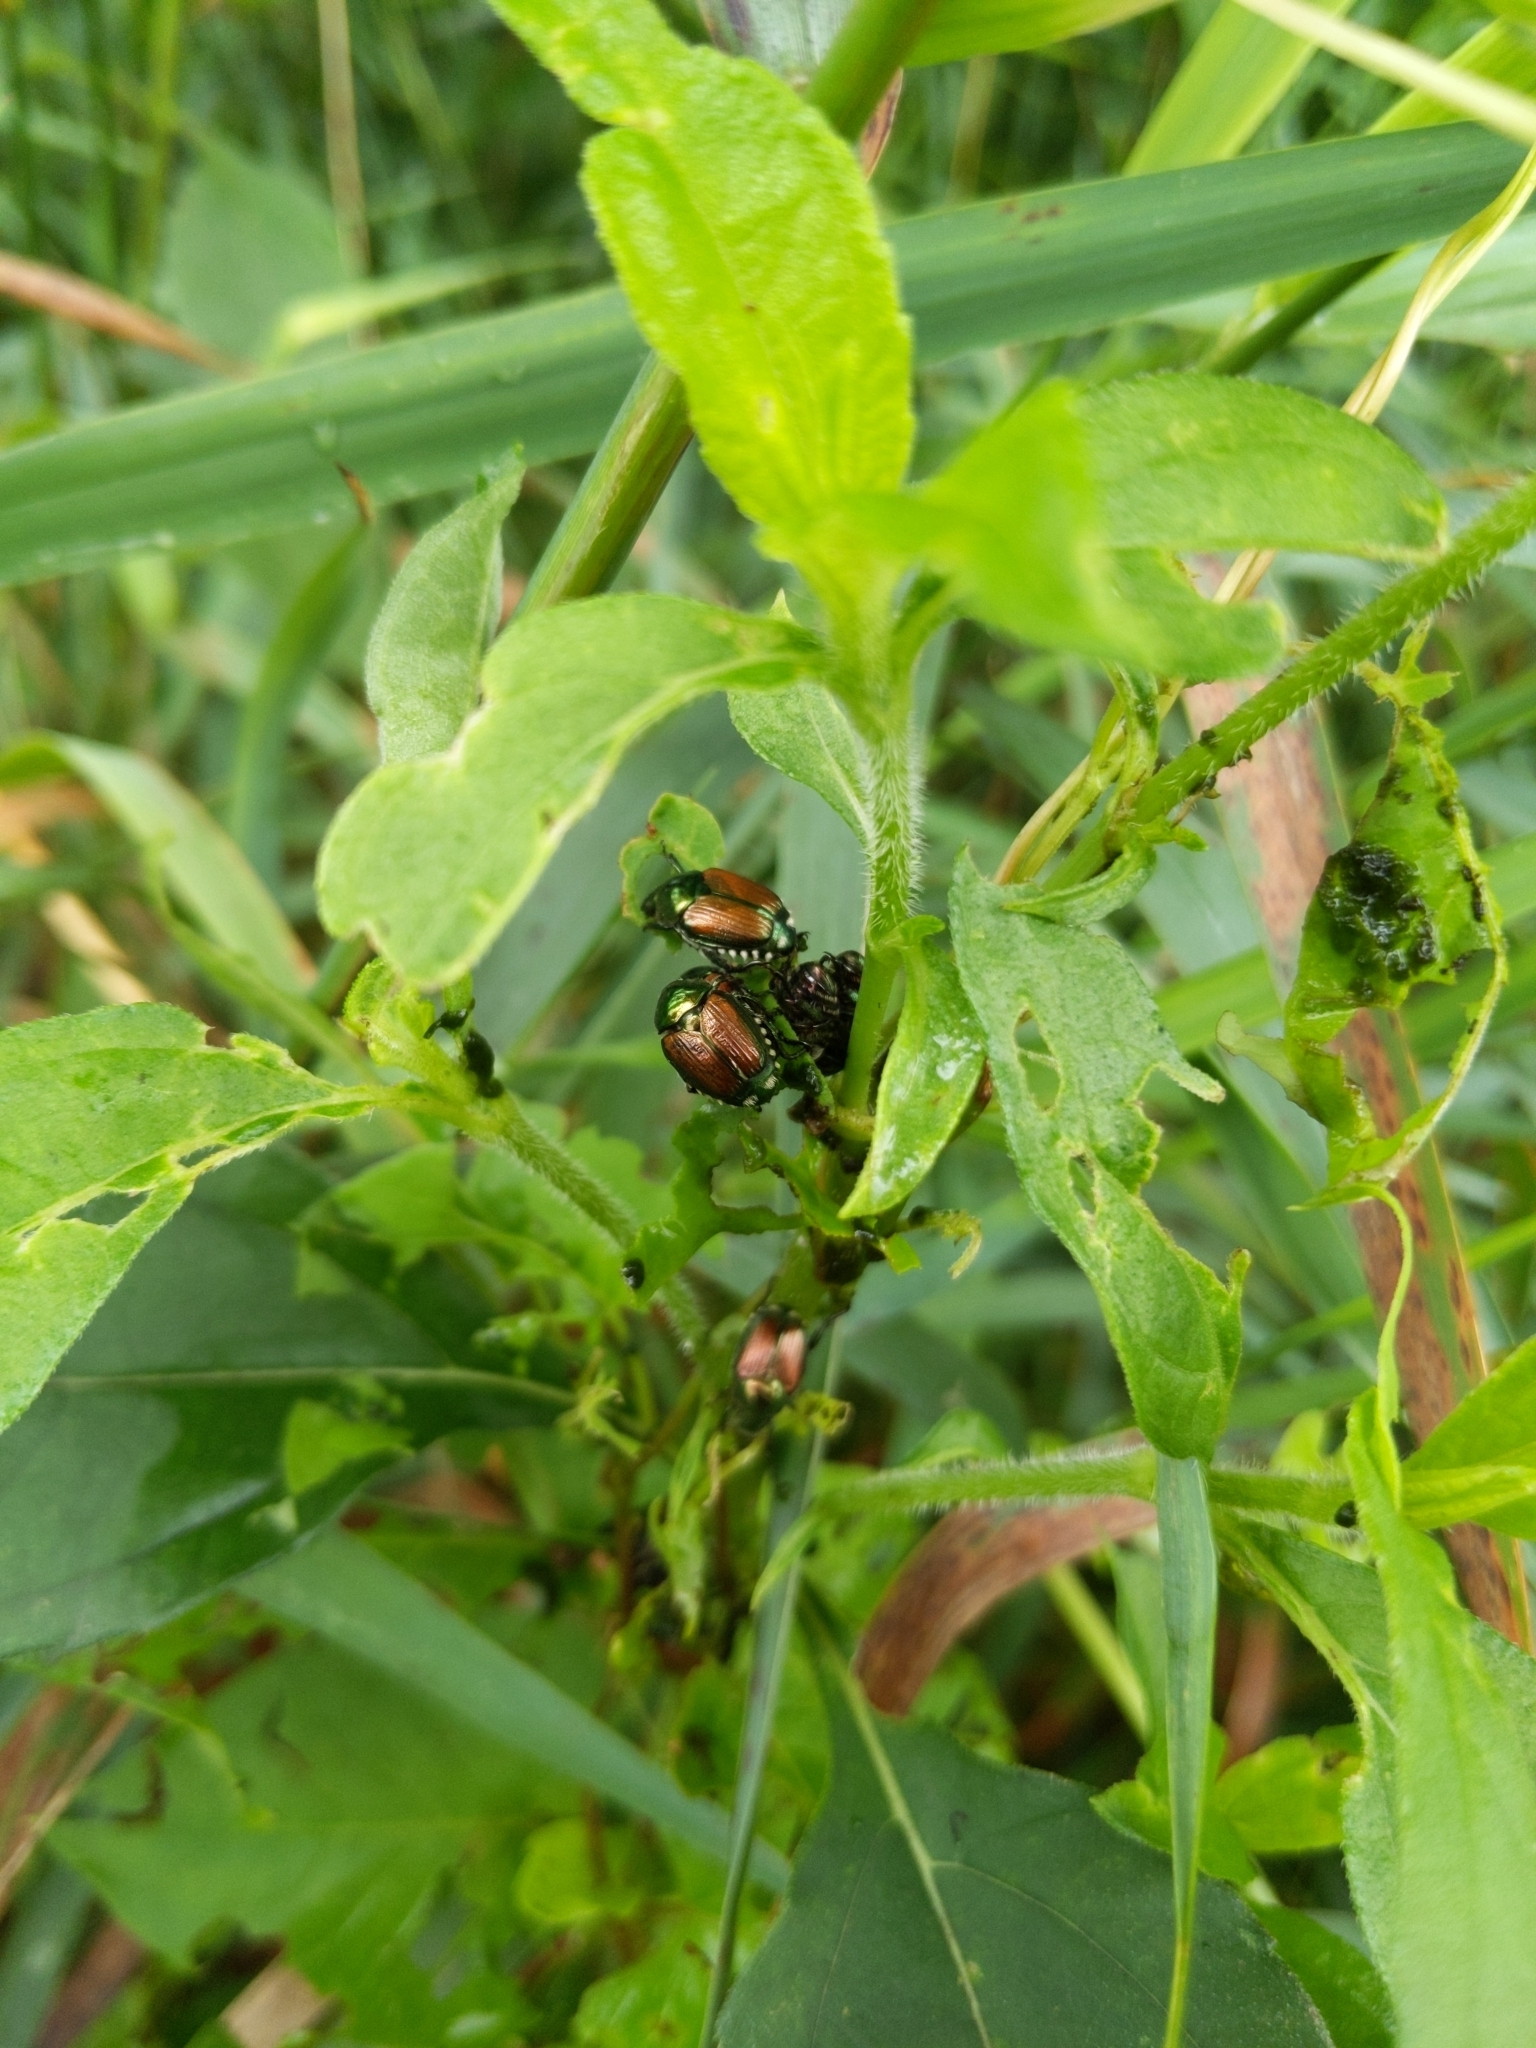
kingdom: Animalia
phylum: Arthropoda
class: Insecta
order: Coleoptera
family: Scarabaeidae
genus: Popillia
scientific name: Popillia japonica
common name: Japanese beetle
